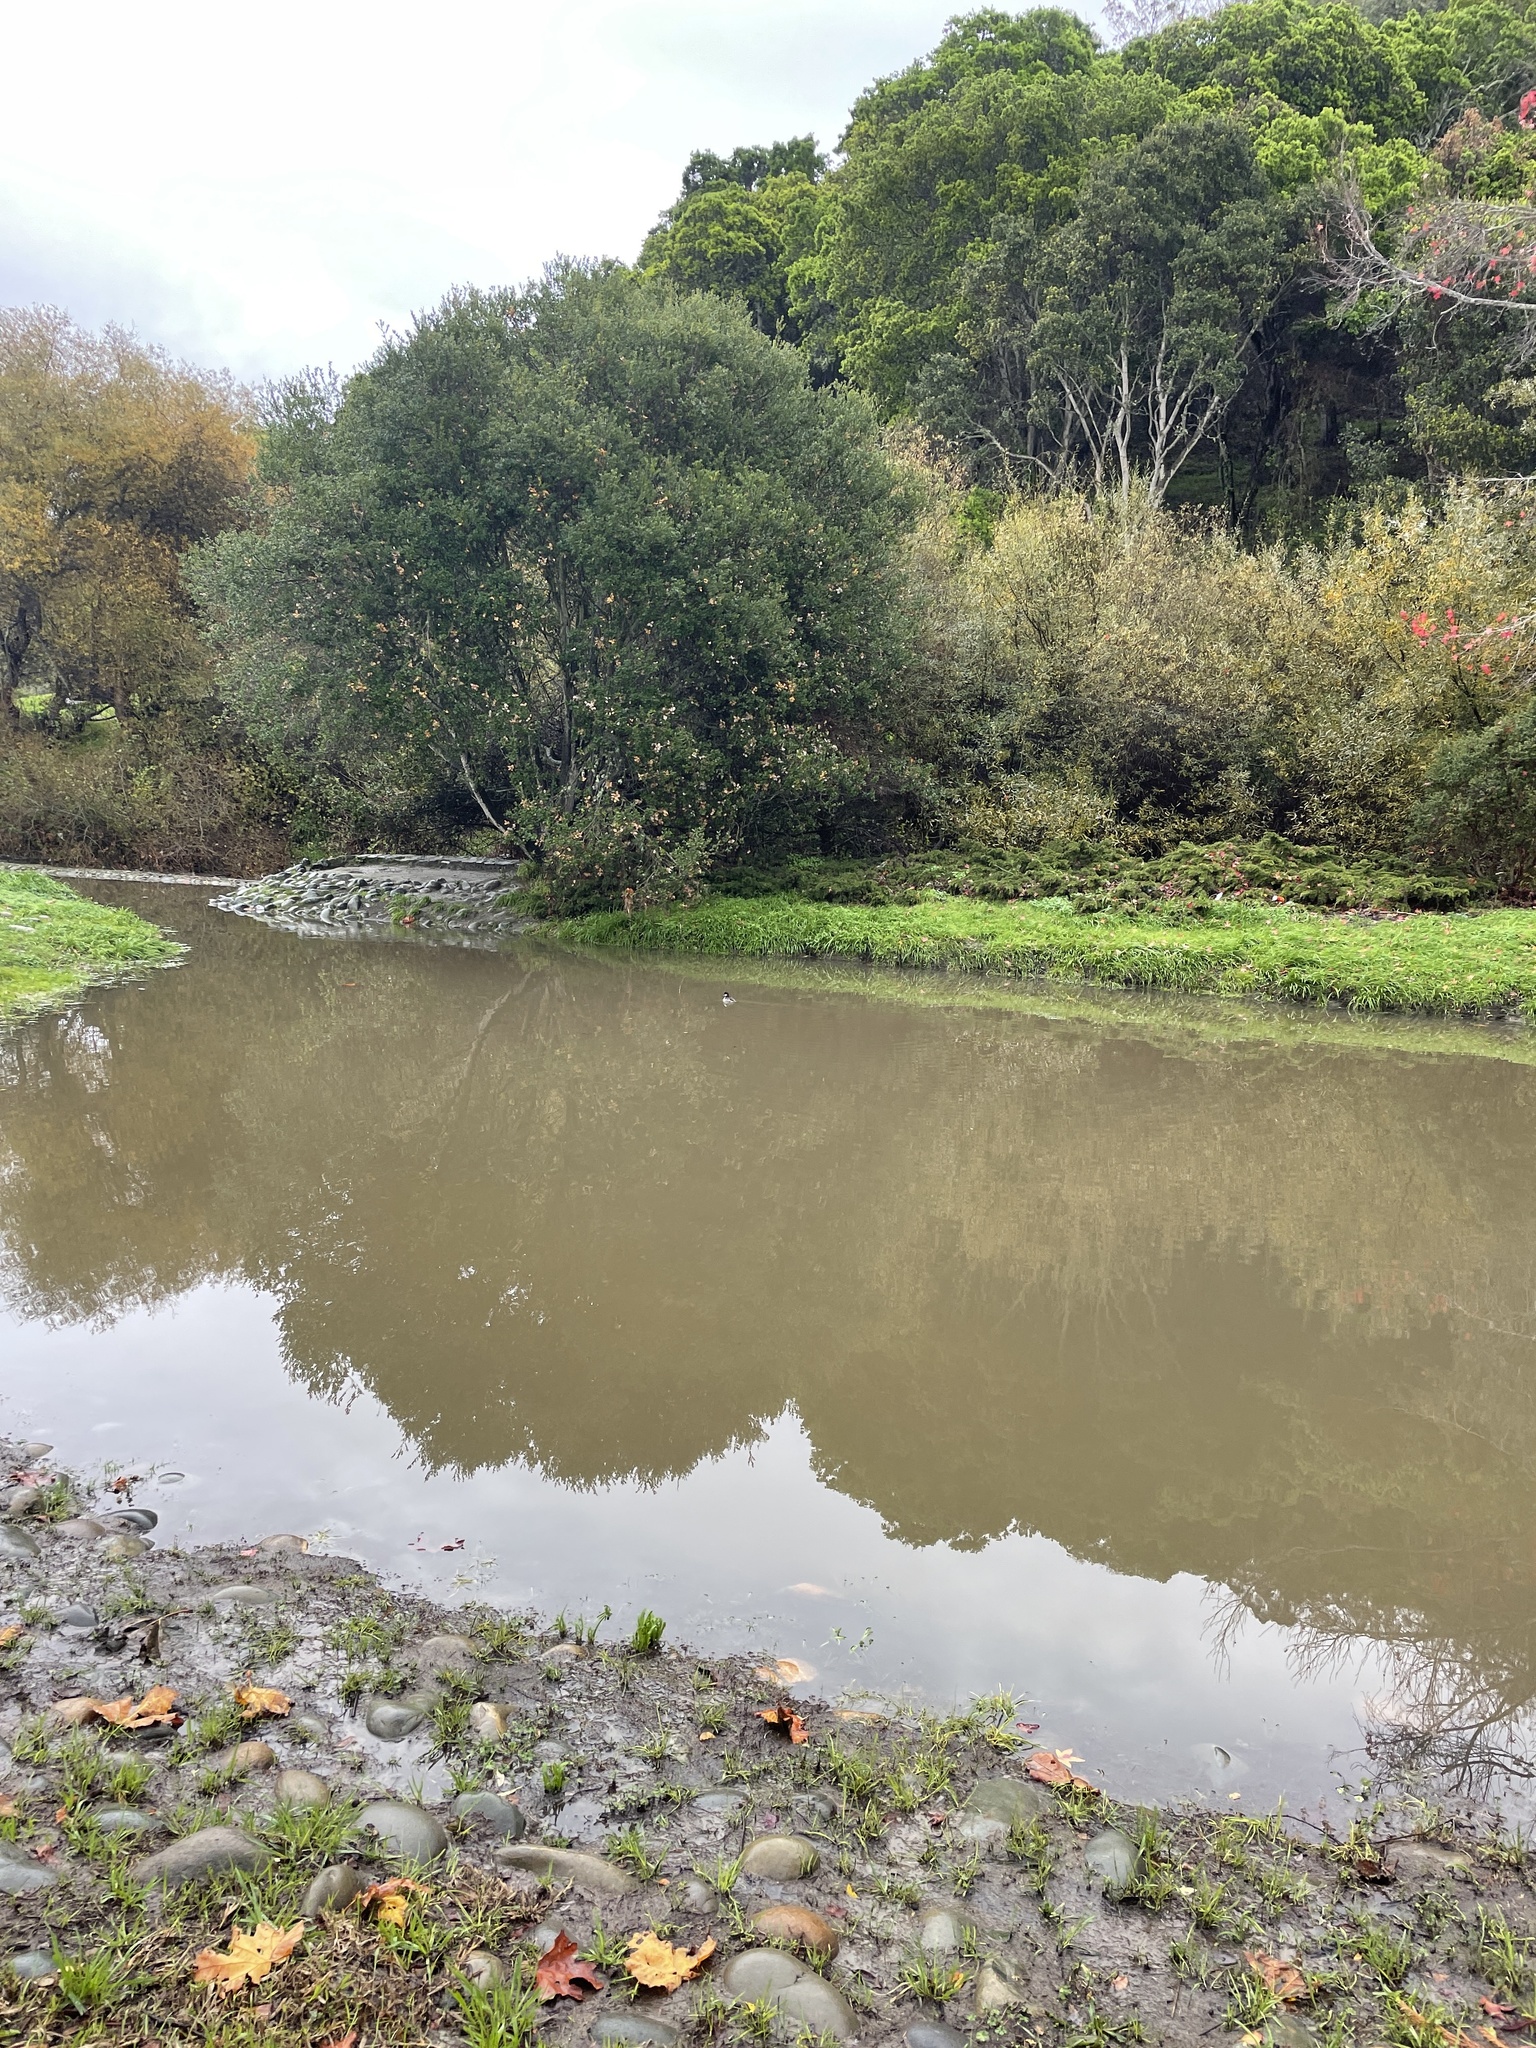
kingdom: Animalia
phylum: Chordata
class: Aves
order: Anseriformes
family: Anatidae
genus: Bucephala
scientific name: Bucephala albeola
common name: Bufflehead
